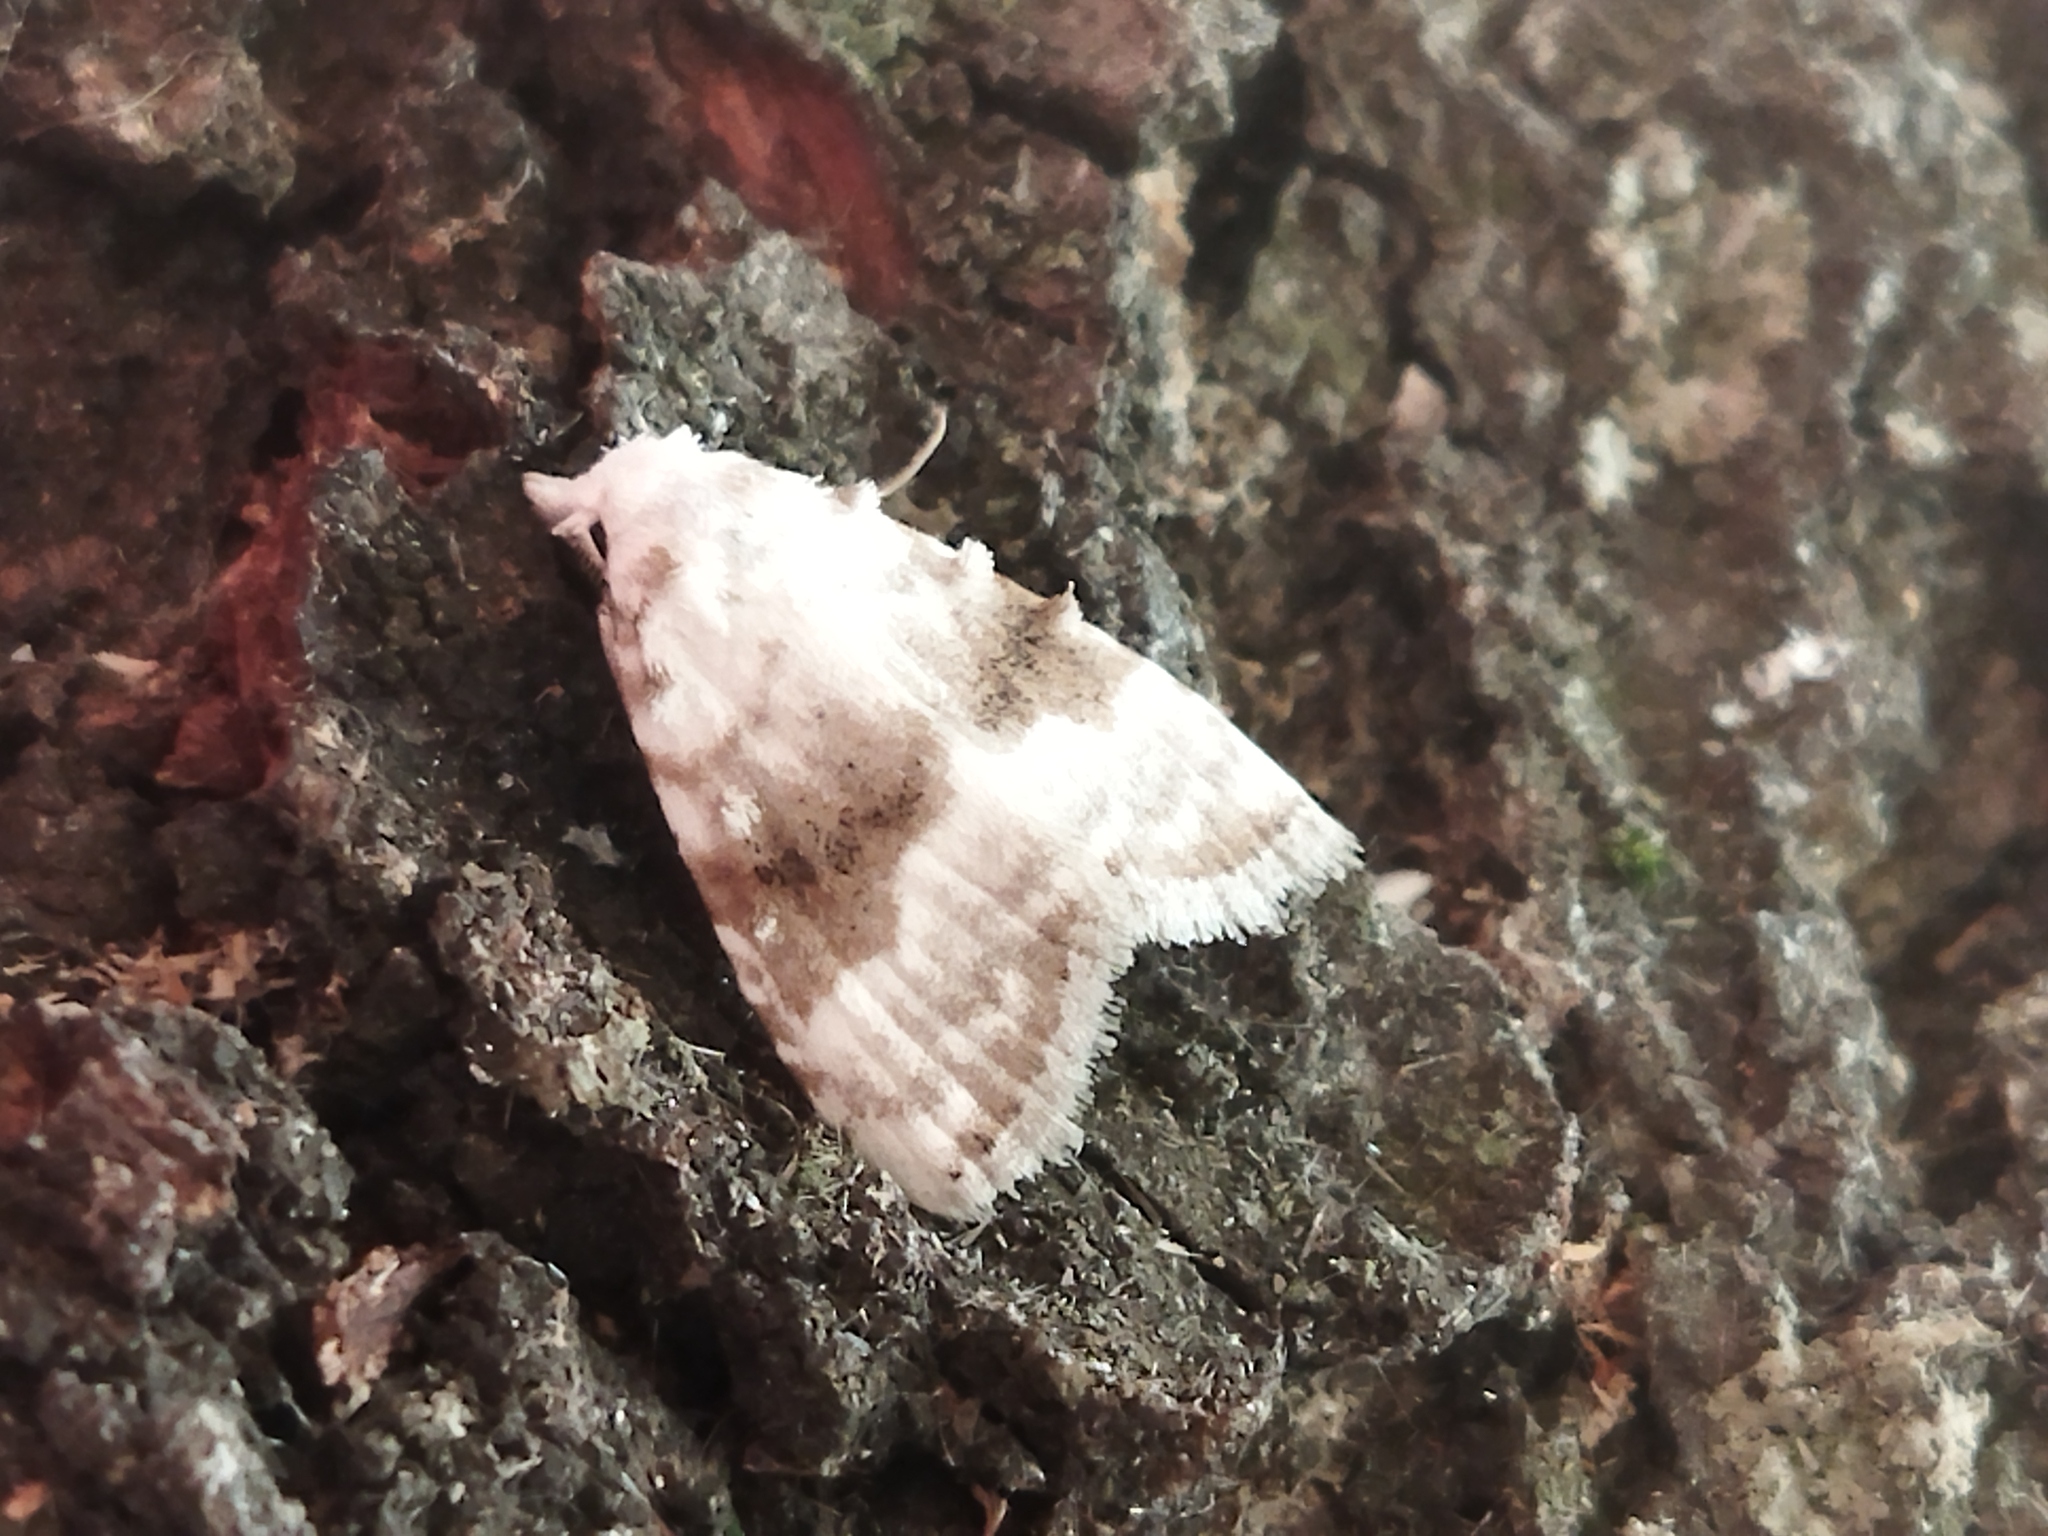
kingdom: Animalia
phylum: Arthropoda
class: Insecta
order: Lepidoptera
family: Nolidae
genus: Meganola
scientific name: Meganola albula
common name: Kent black arches
